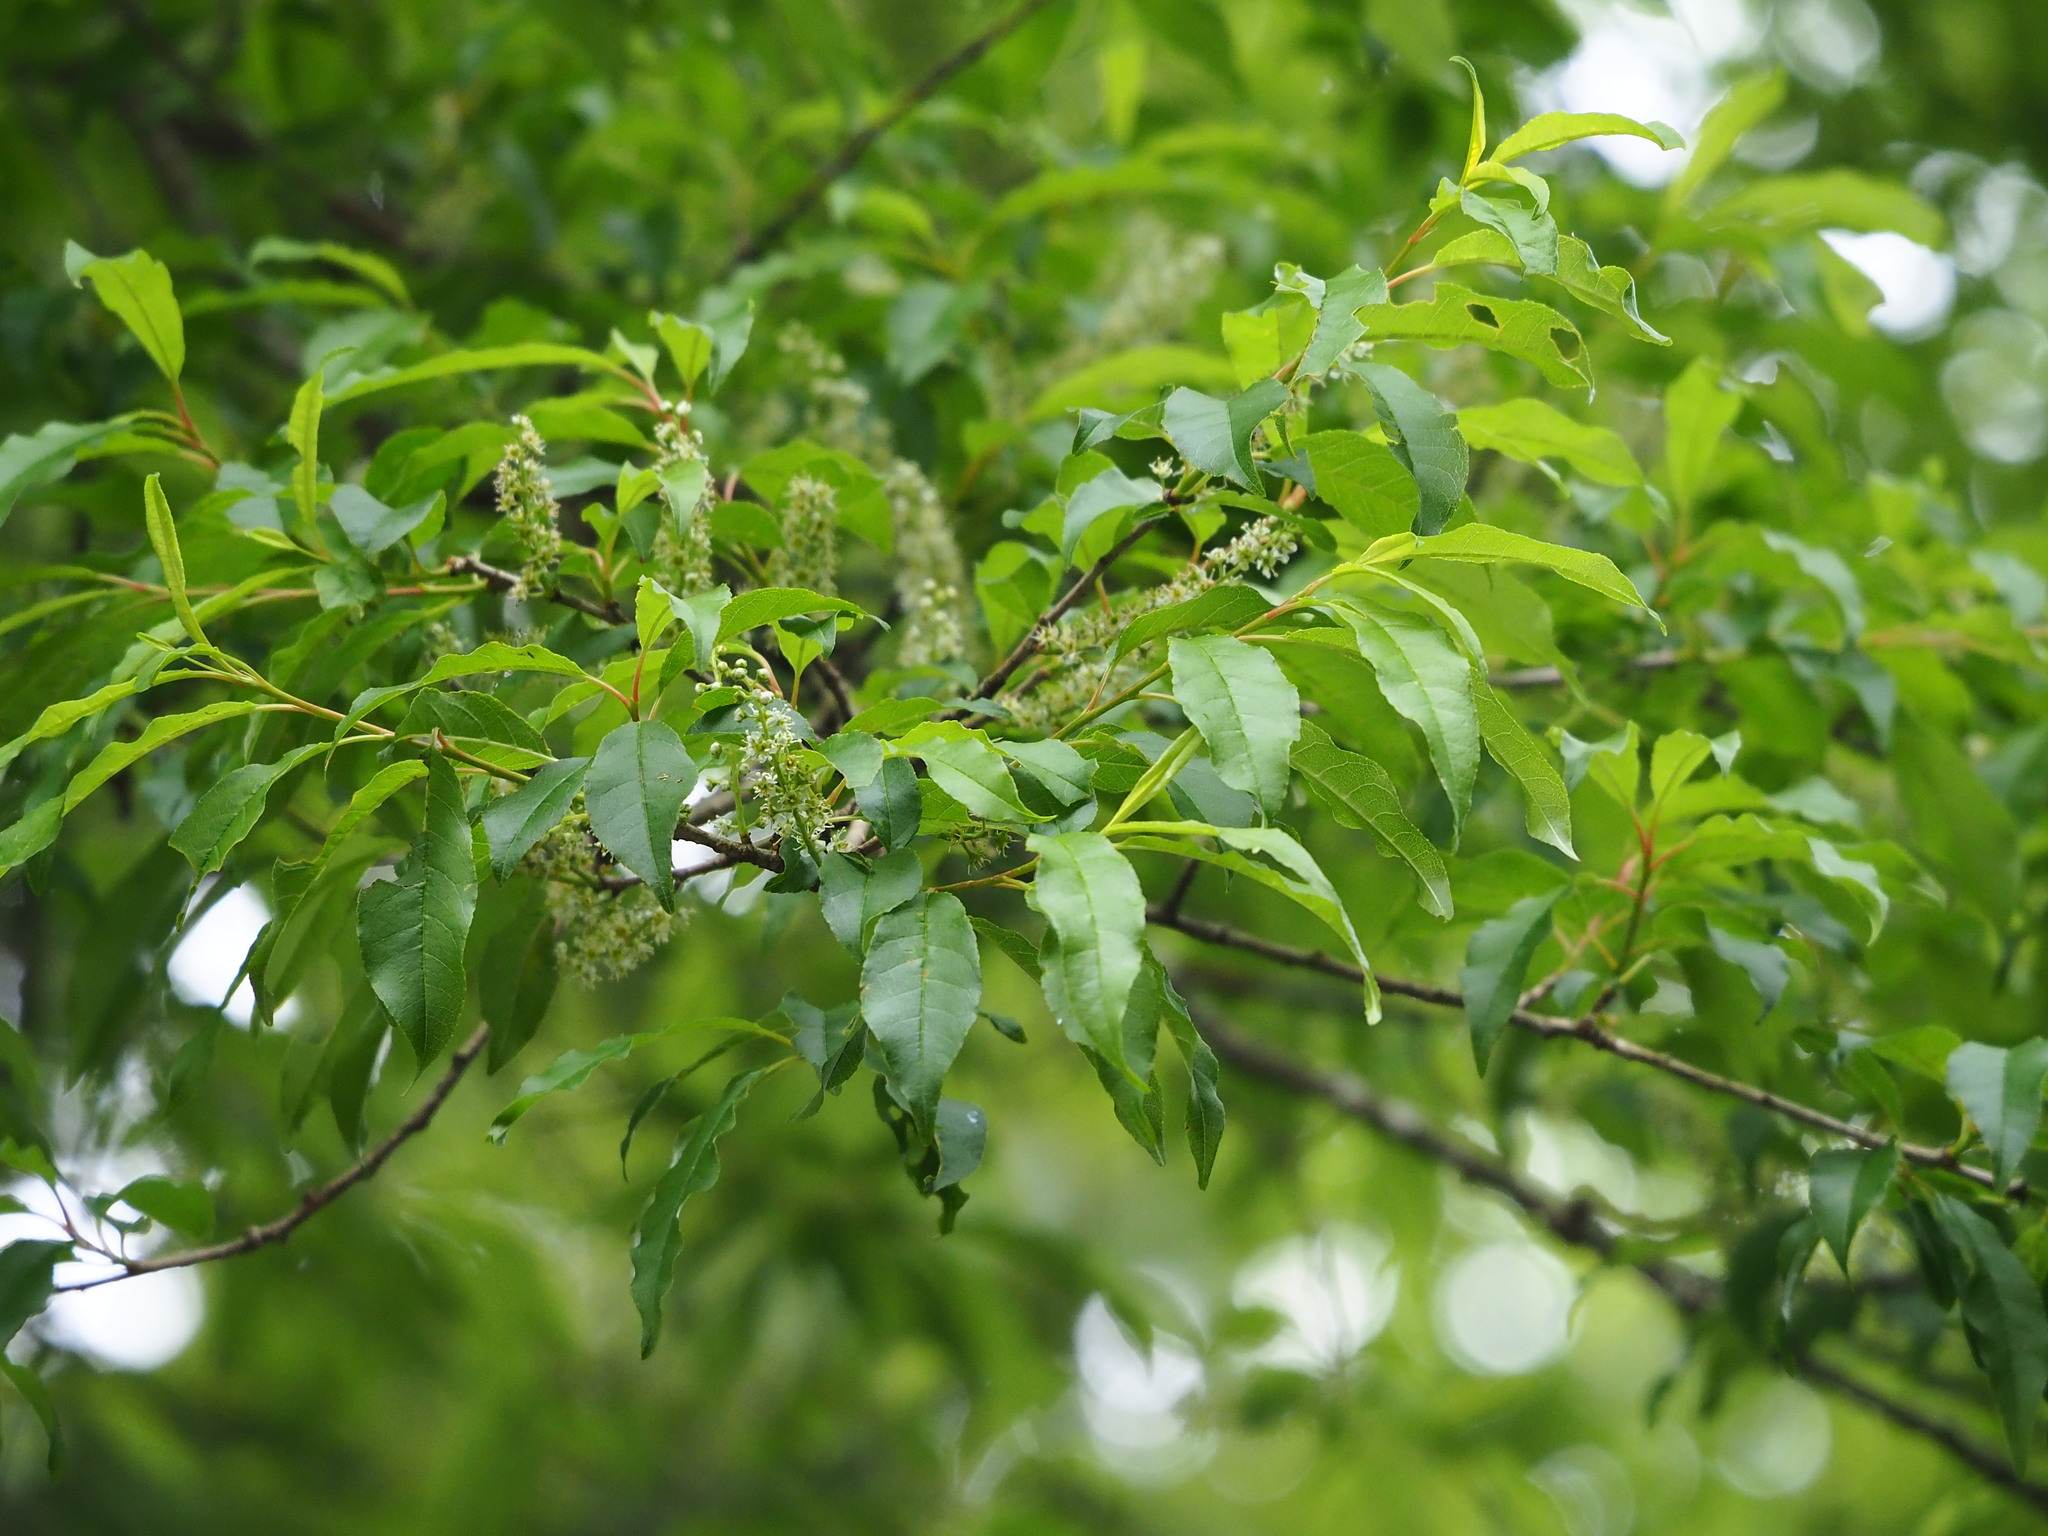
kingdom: Plantae
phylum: Tracheophyta
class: Magnoliopsida
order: Rosales
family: Rosaceae
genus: Prunus
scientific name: Prunus buergeriana
